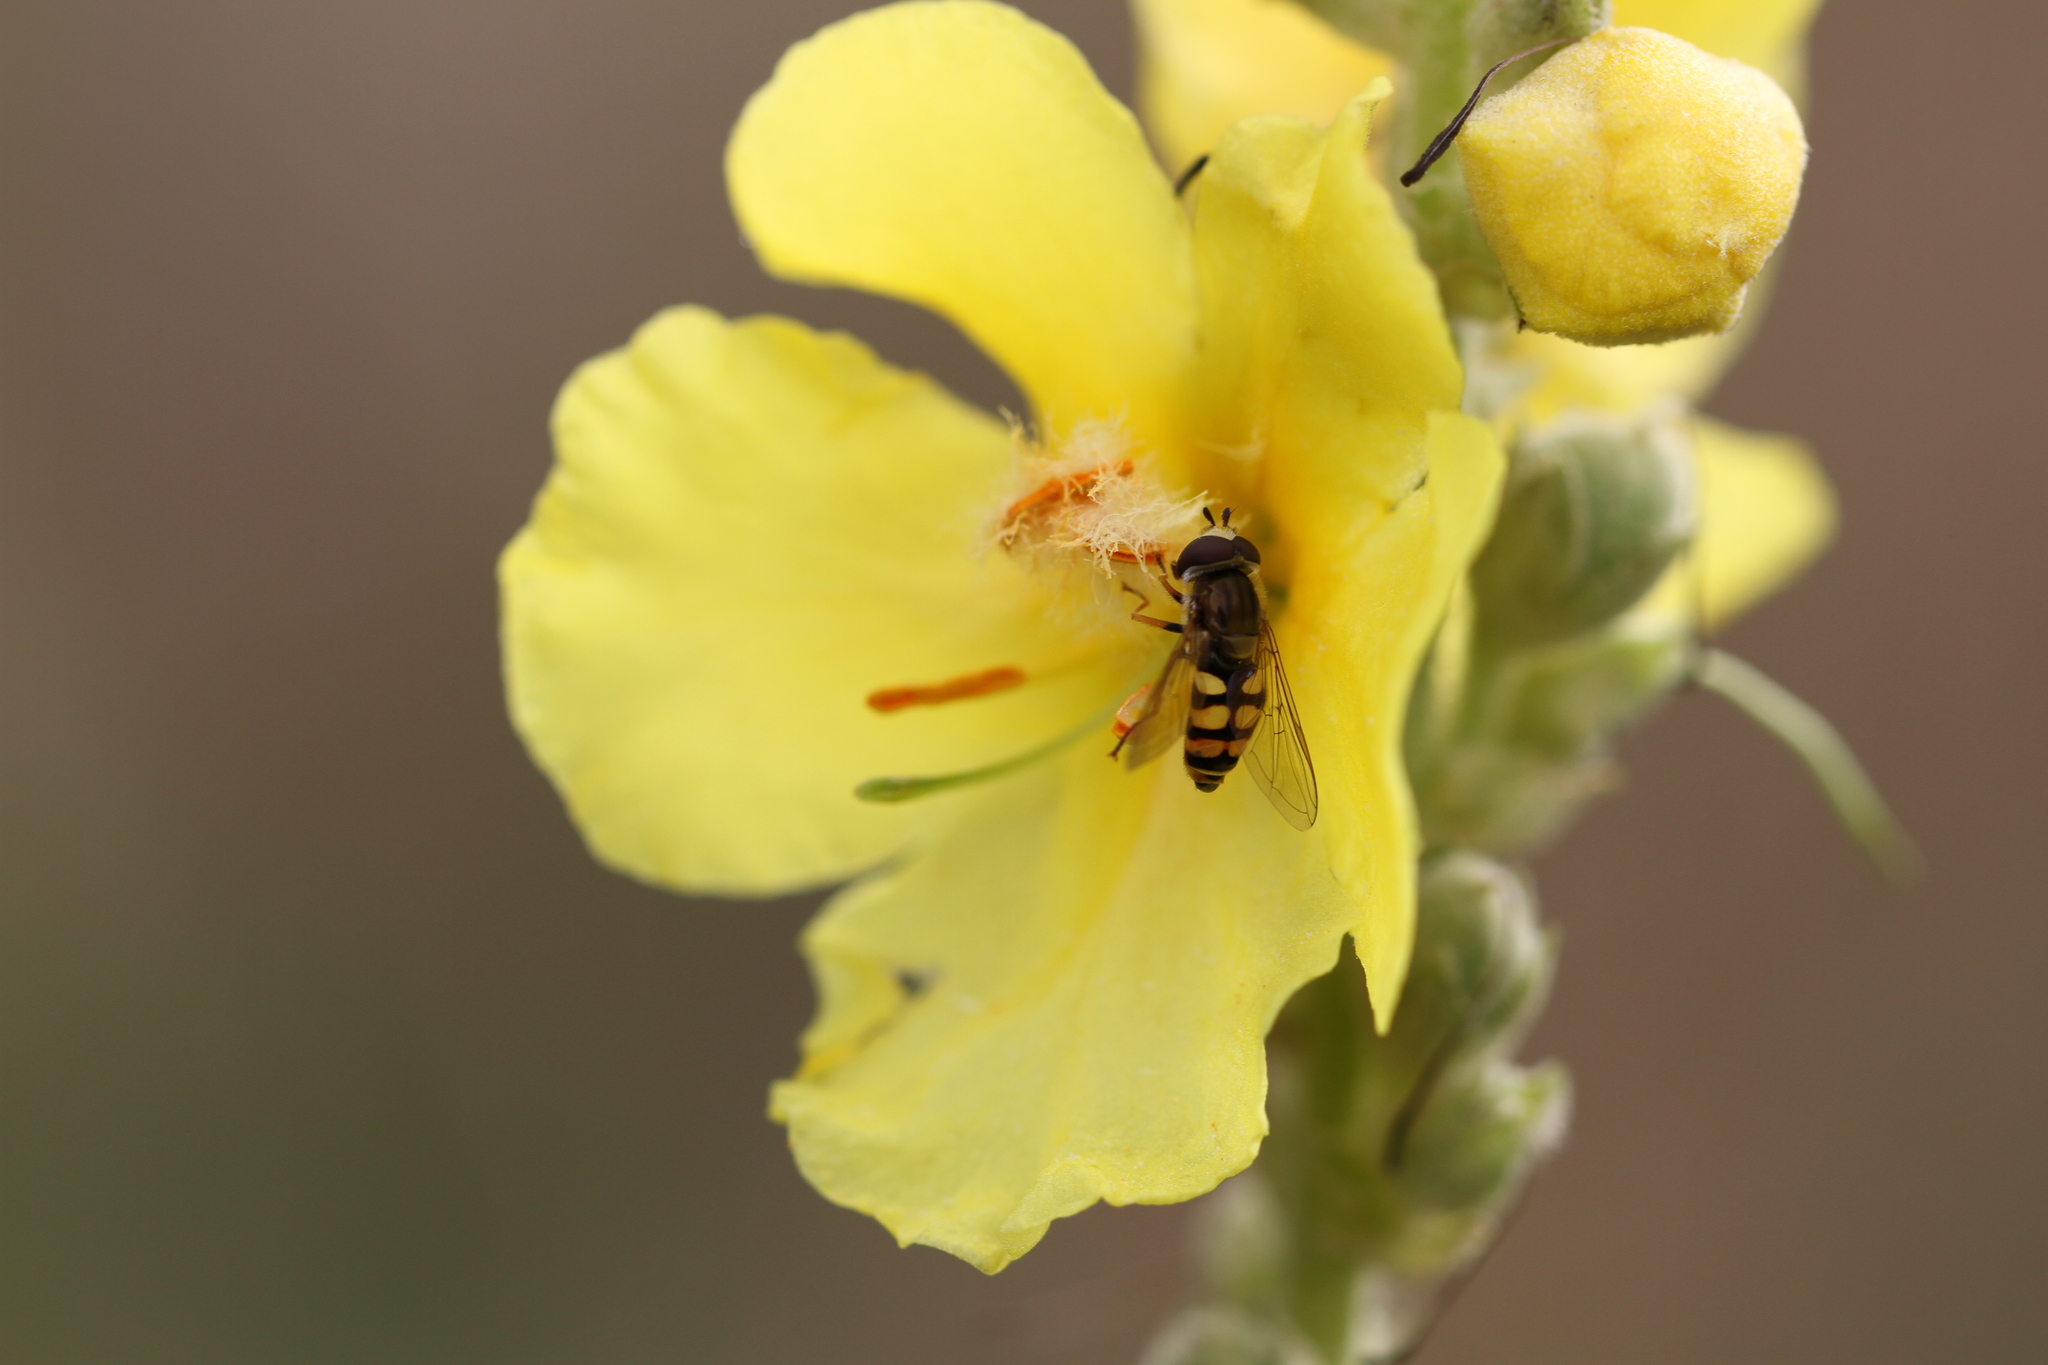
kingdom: Animalia
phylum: Arthropoda
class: Insecta
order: Diptera
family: Syrphidae
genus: Eupeodes
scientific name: Eupeodes corollae
